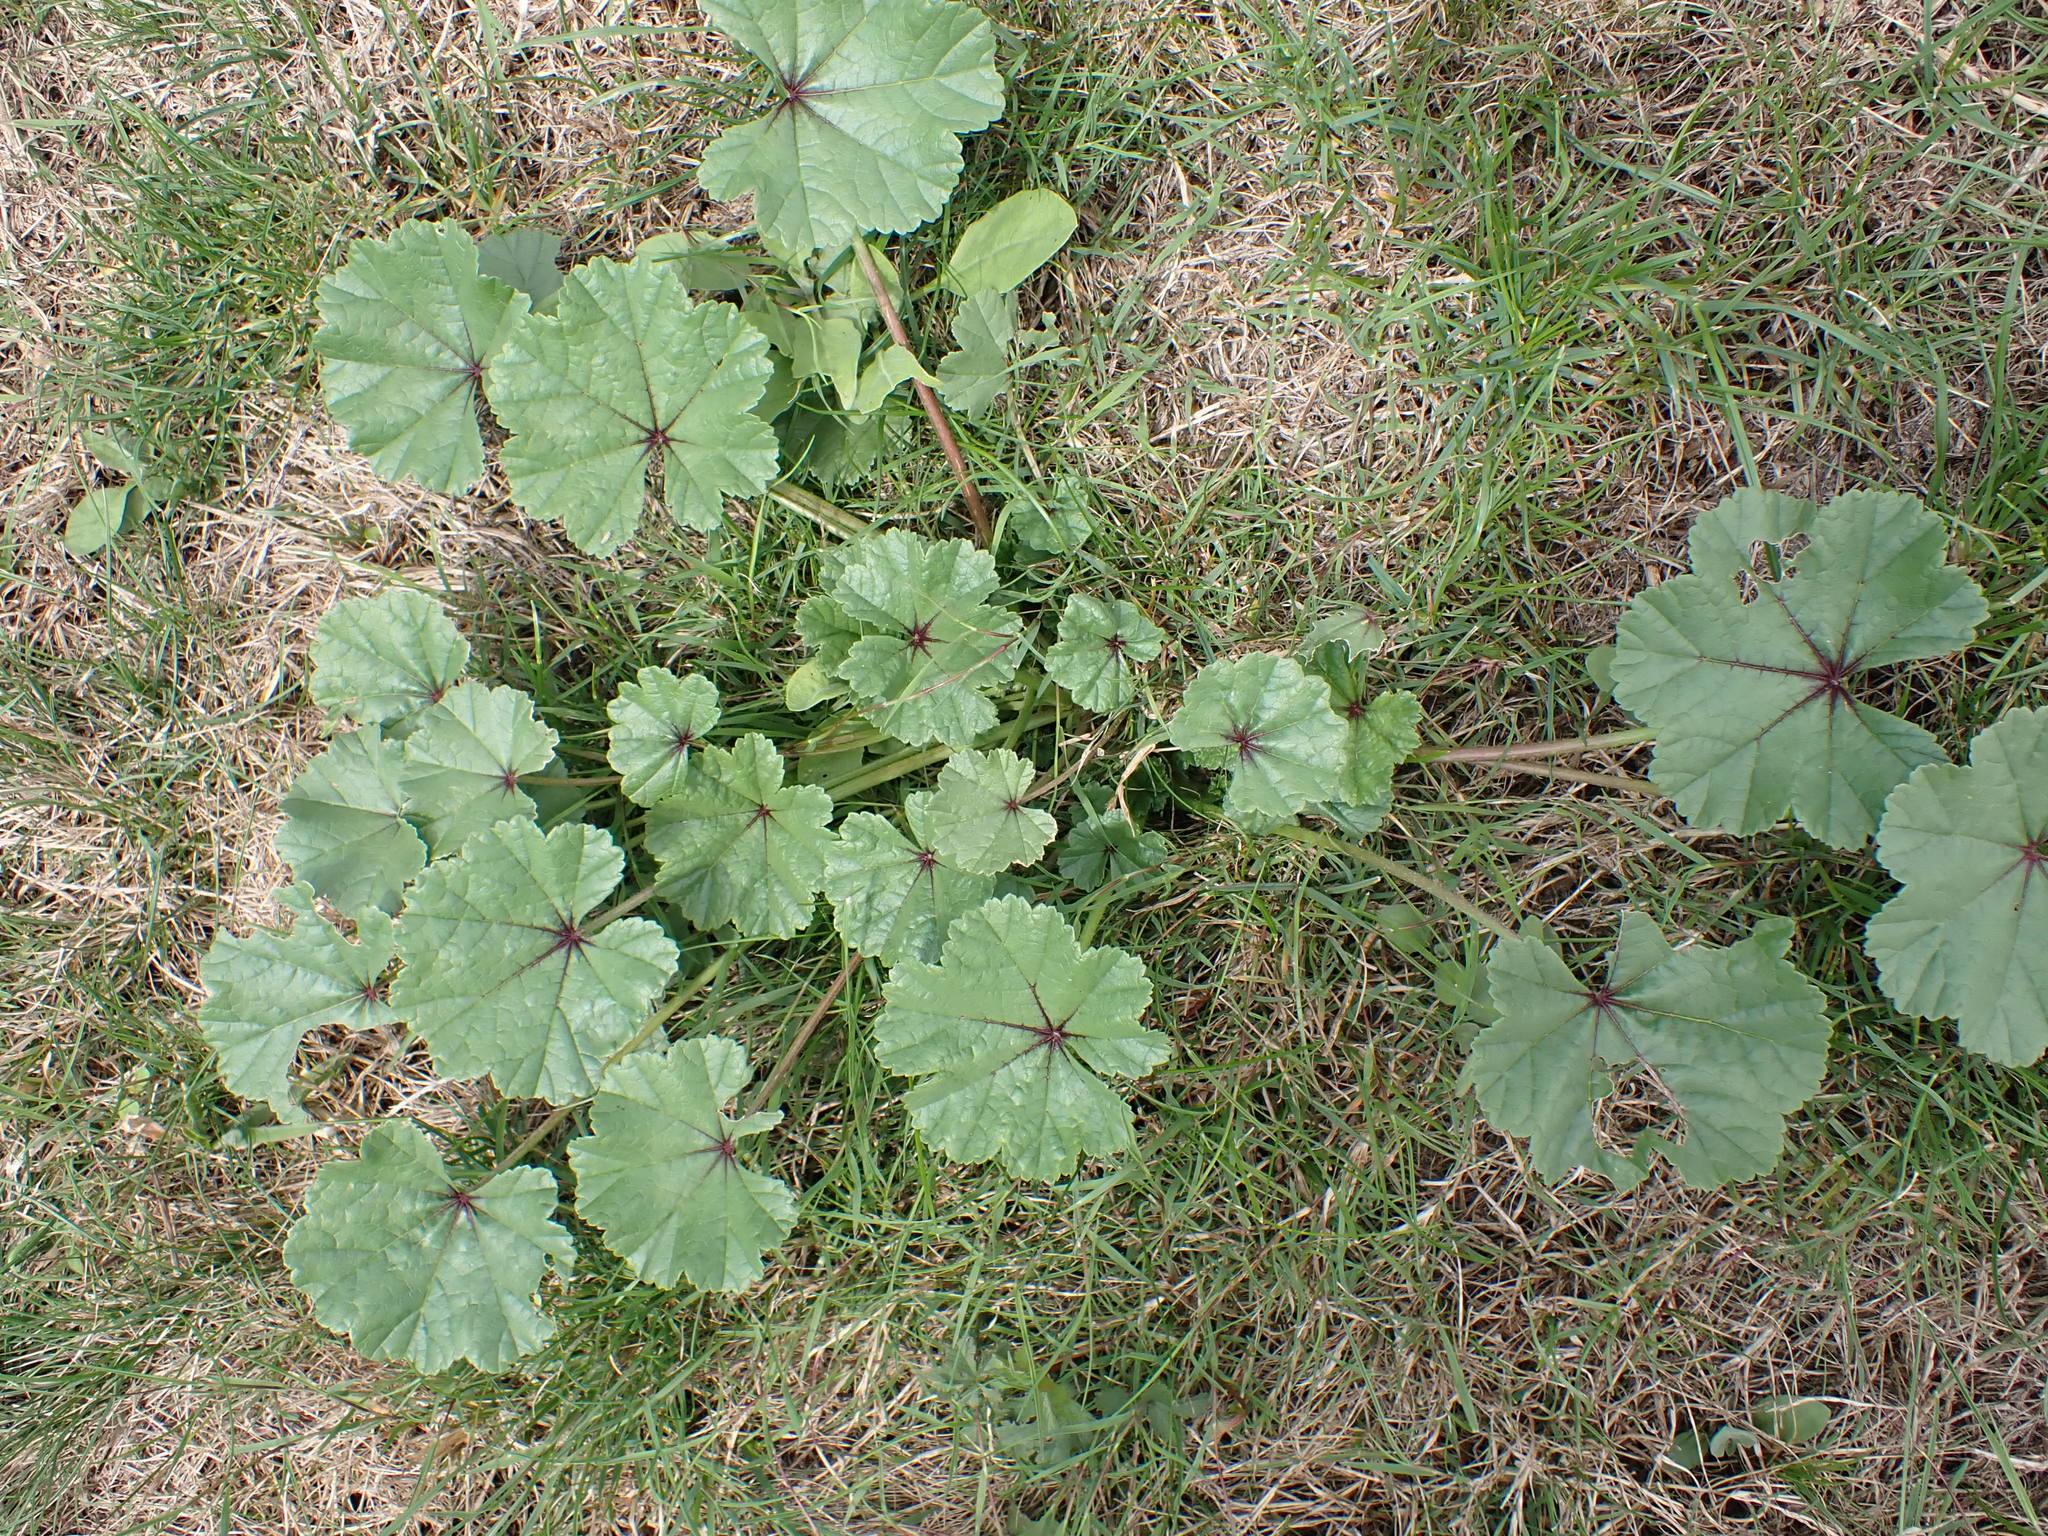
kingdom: Plantae
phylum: Tracheophyta
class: Magnoliopsida
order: Malvales
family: Malvaceae
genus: Malva
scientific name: Malva sylvestris
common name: Common mallow
